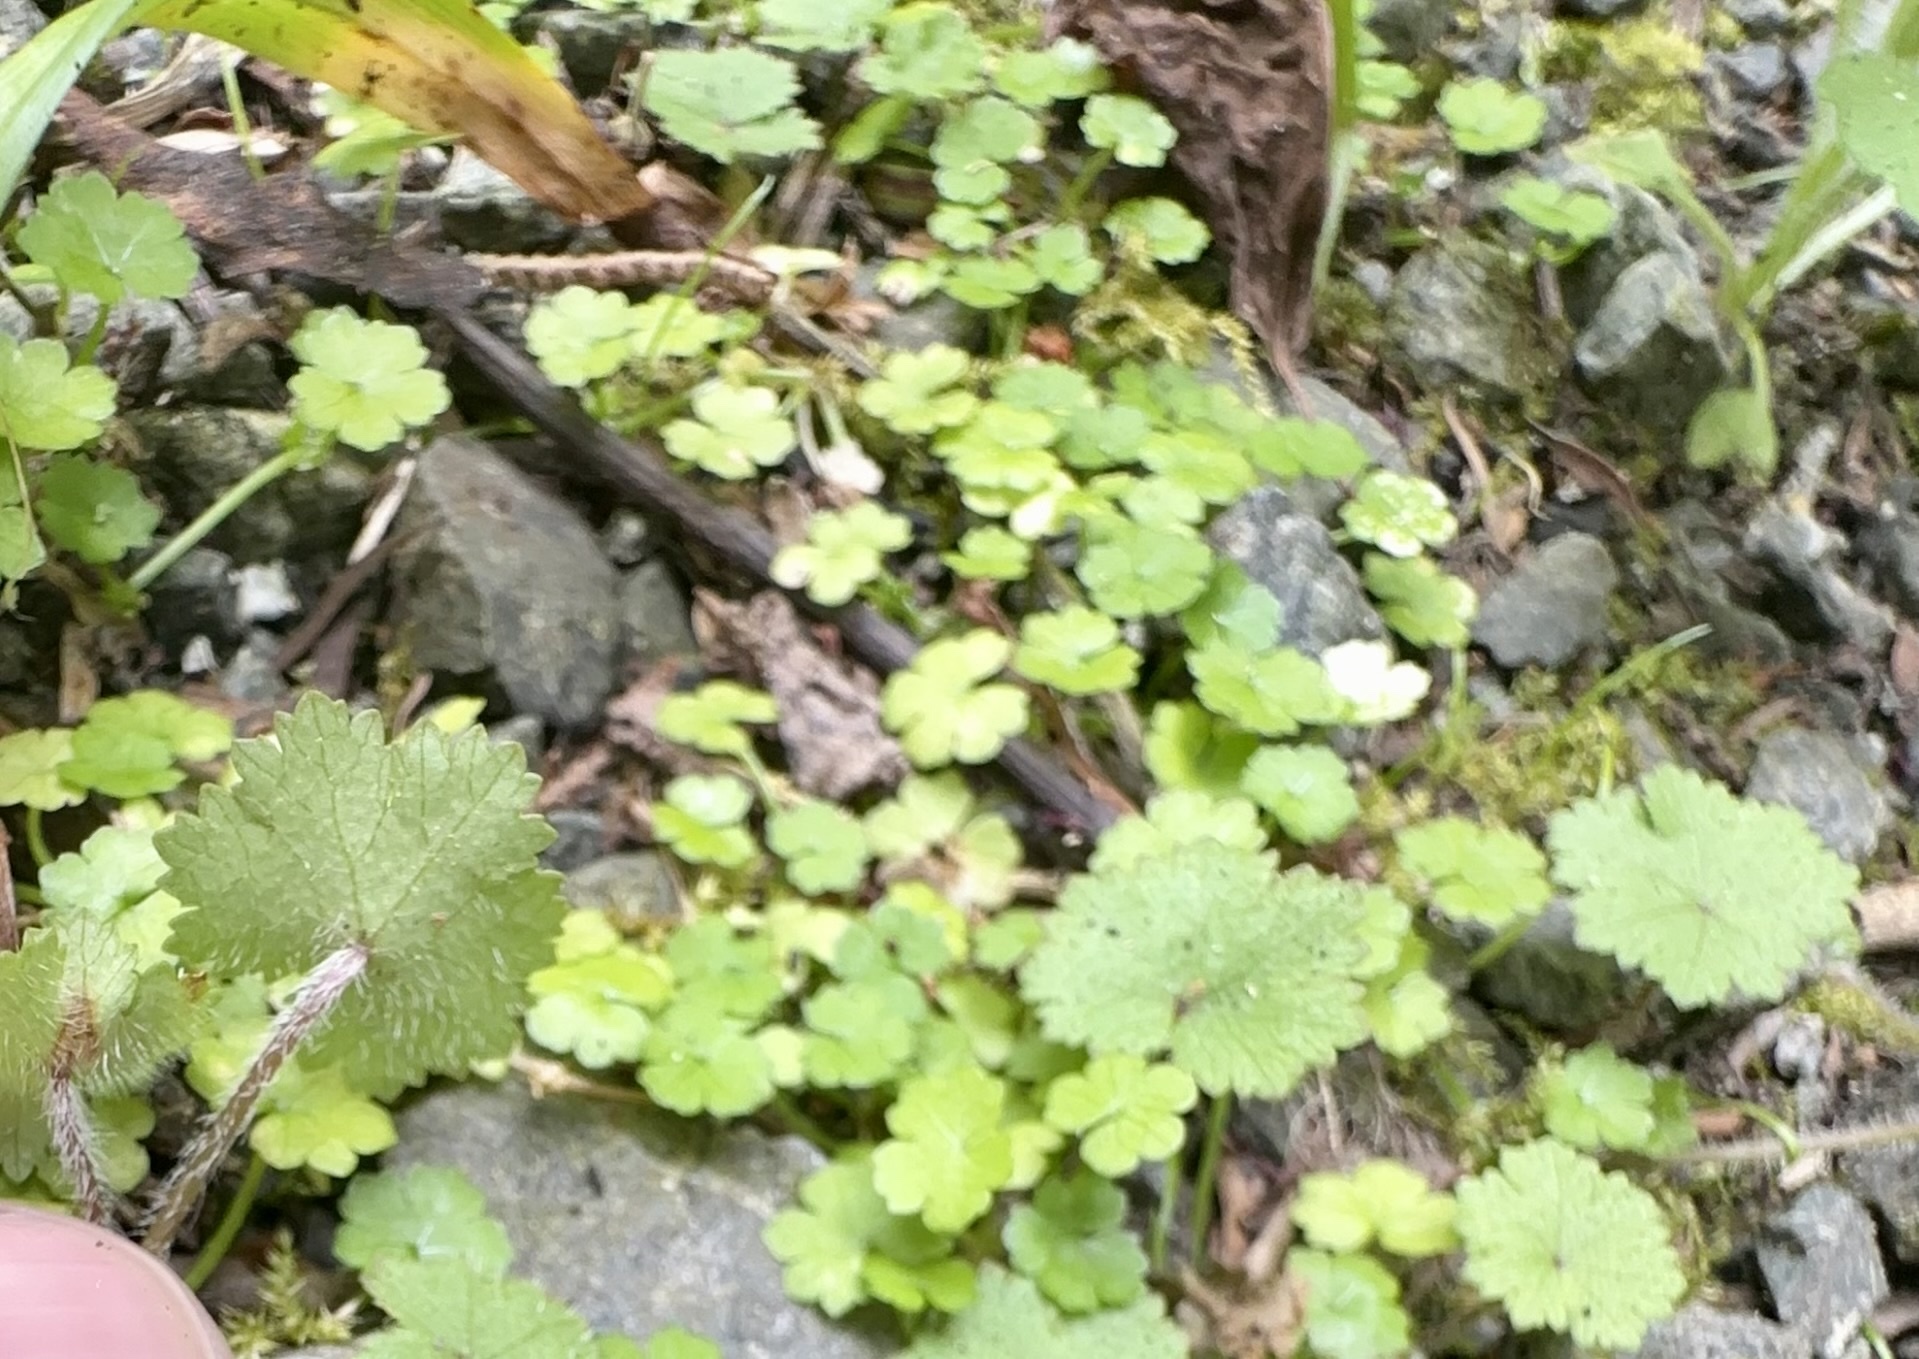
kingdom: Plantae
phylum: Tracheophyta
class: Magnoliopsida
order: Apiales
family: Araliaceae
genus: Hydrocotyle
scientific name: Hydrocotyle moschata
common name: Hairy pennywort
